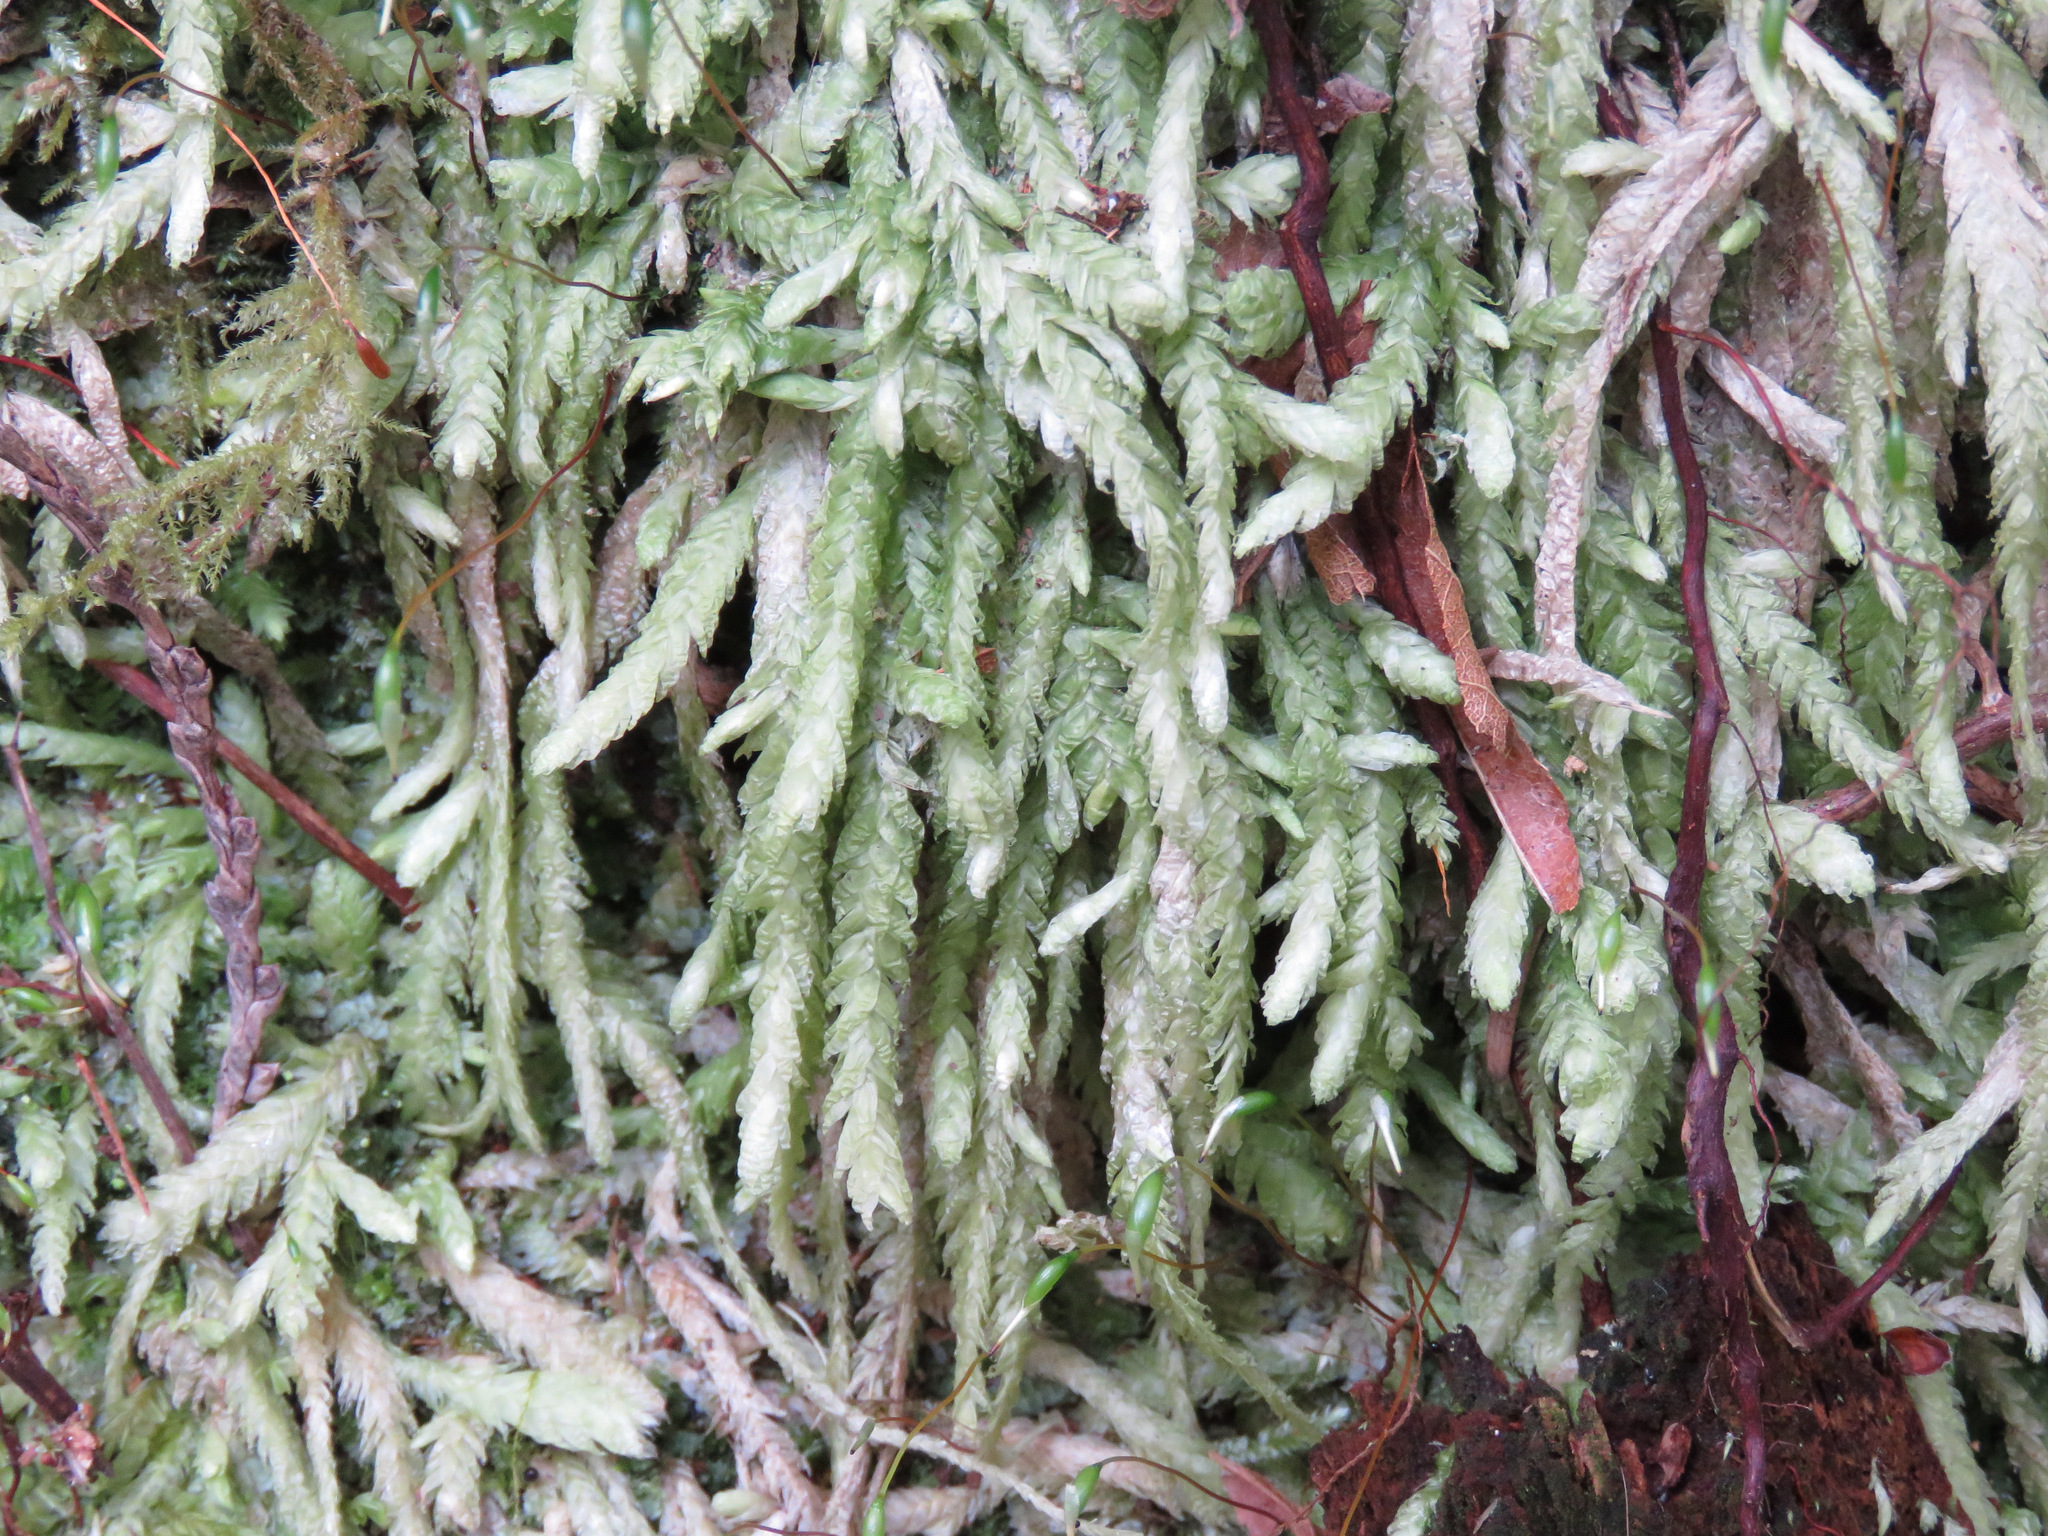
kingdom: Plantae
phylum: Bryophyta
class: Bryopsida
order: Hypnales
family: Plagiotheciaceae
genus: Plagiothecium
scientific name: Plagiothecium undulatum
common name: Waved silk-moss
